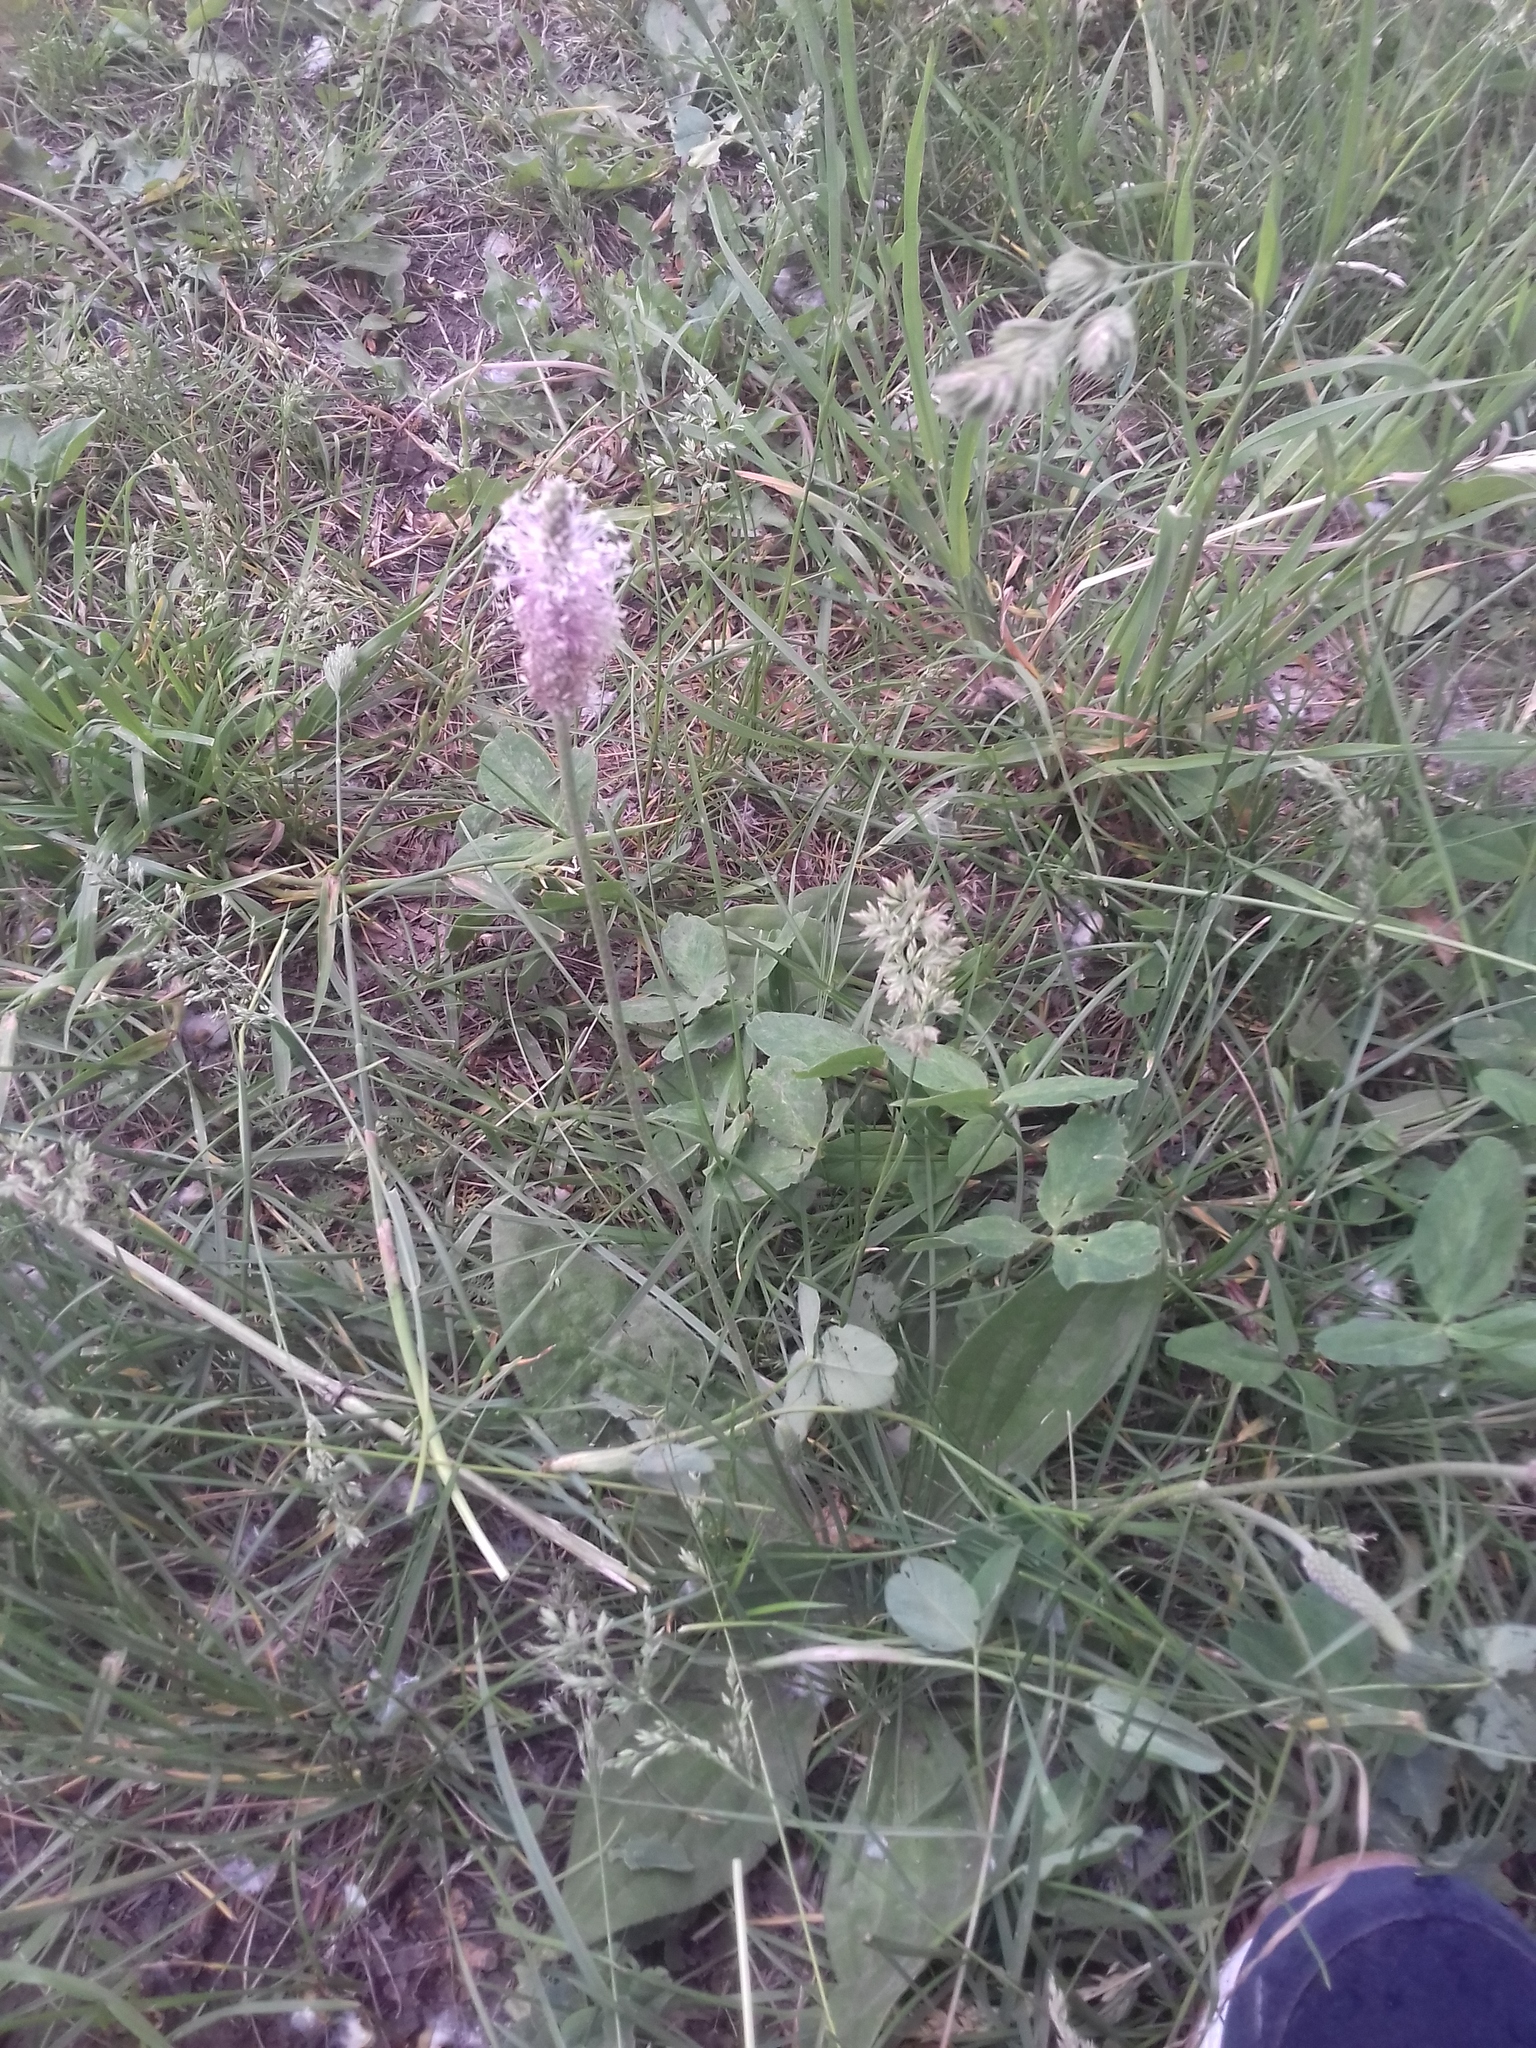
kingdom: Plantae
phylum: Tracheophyta
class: Magnoliopsida
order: Lamiales
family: Plantaginaceae
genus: Plantago
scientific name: Plantago media
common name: Hoary plantain
